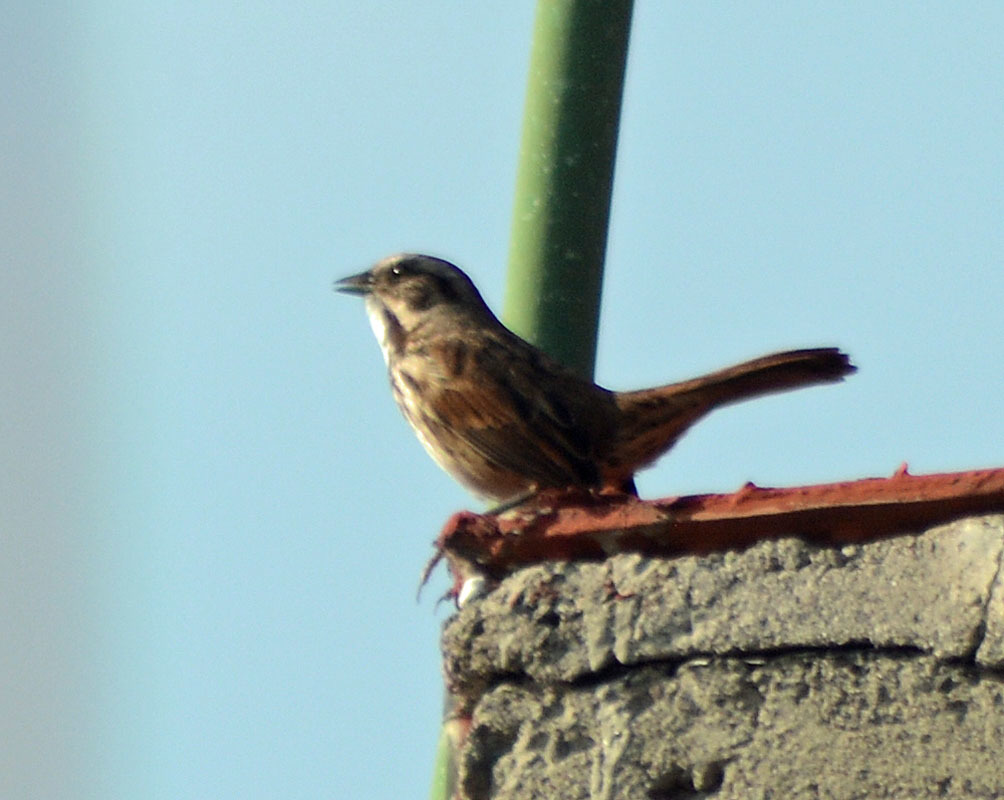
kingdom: Animalia
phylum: Chordata
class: Aves
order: Passeriformes
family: Passerellidae
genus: Melospiza
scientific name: Melospiza melodia
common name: Song sparrow
